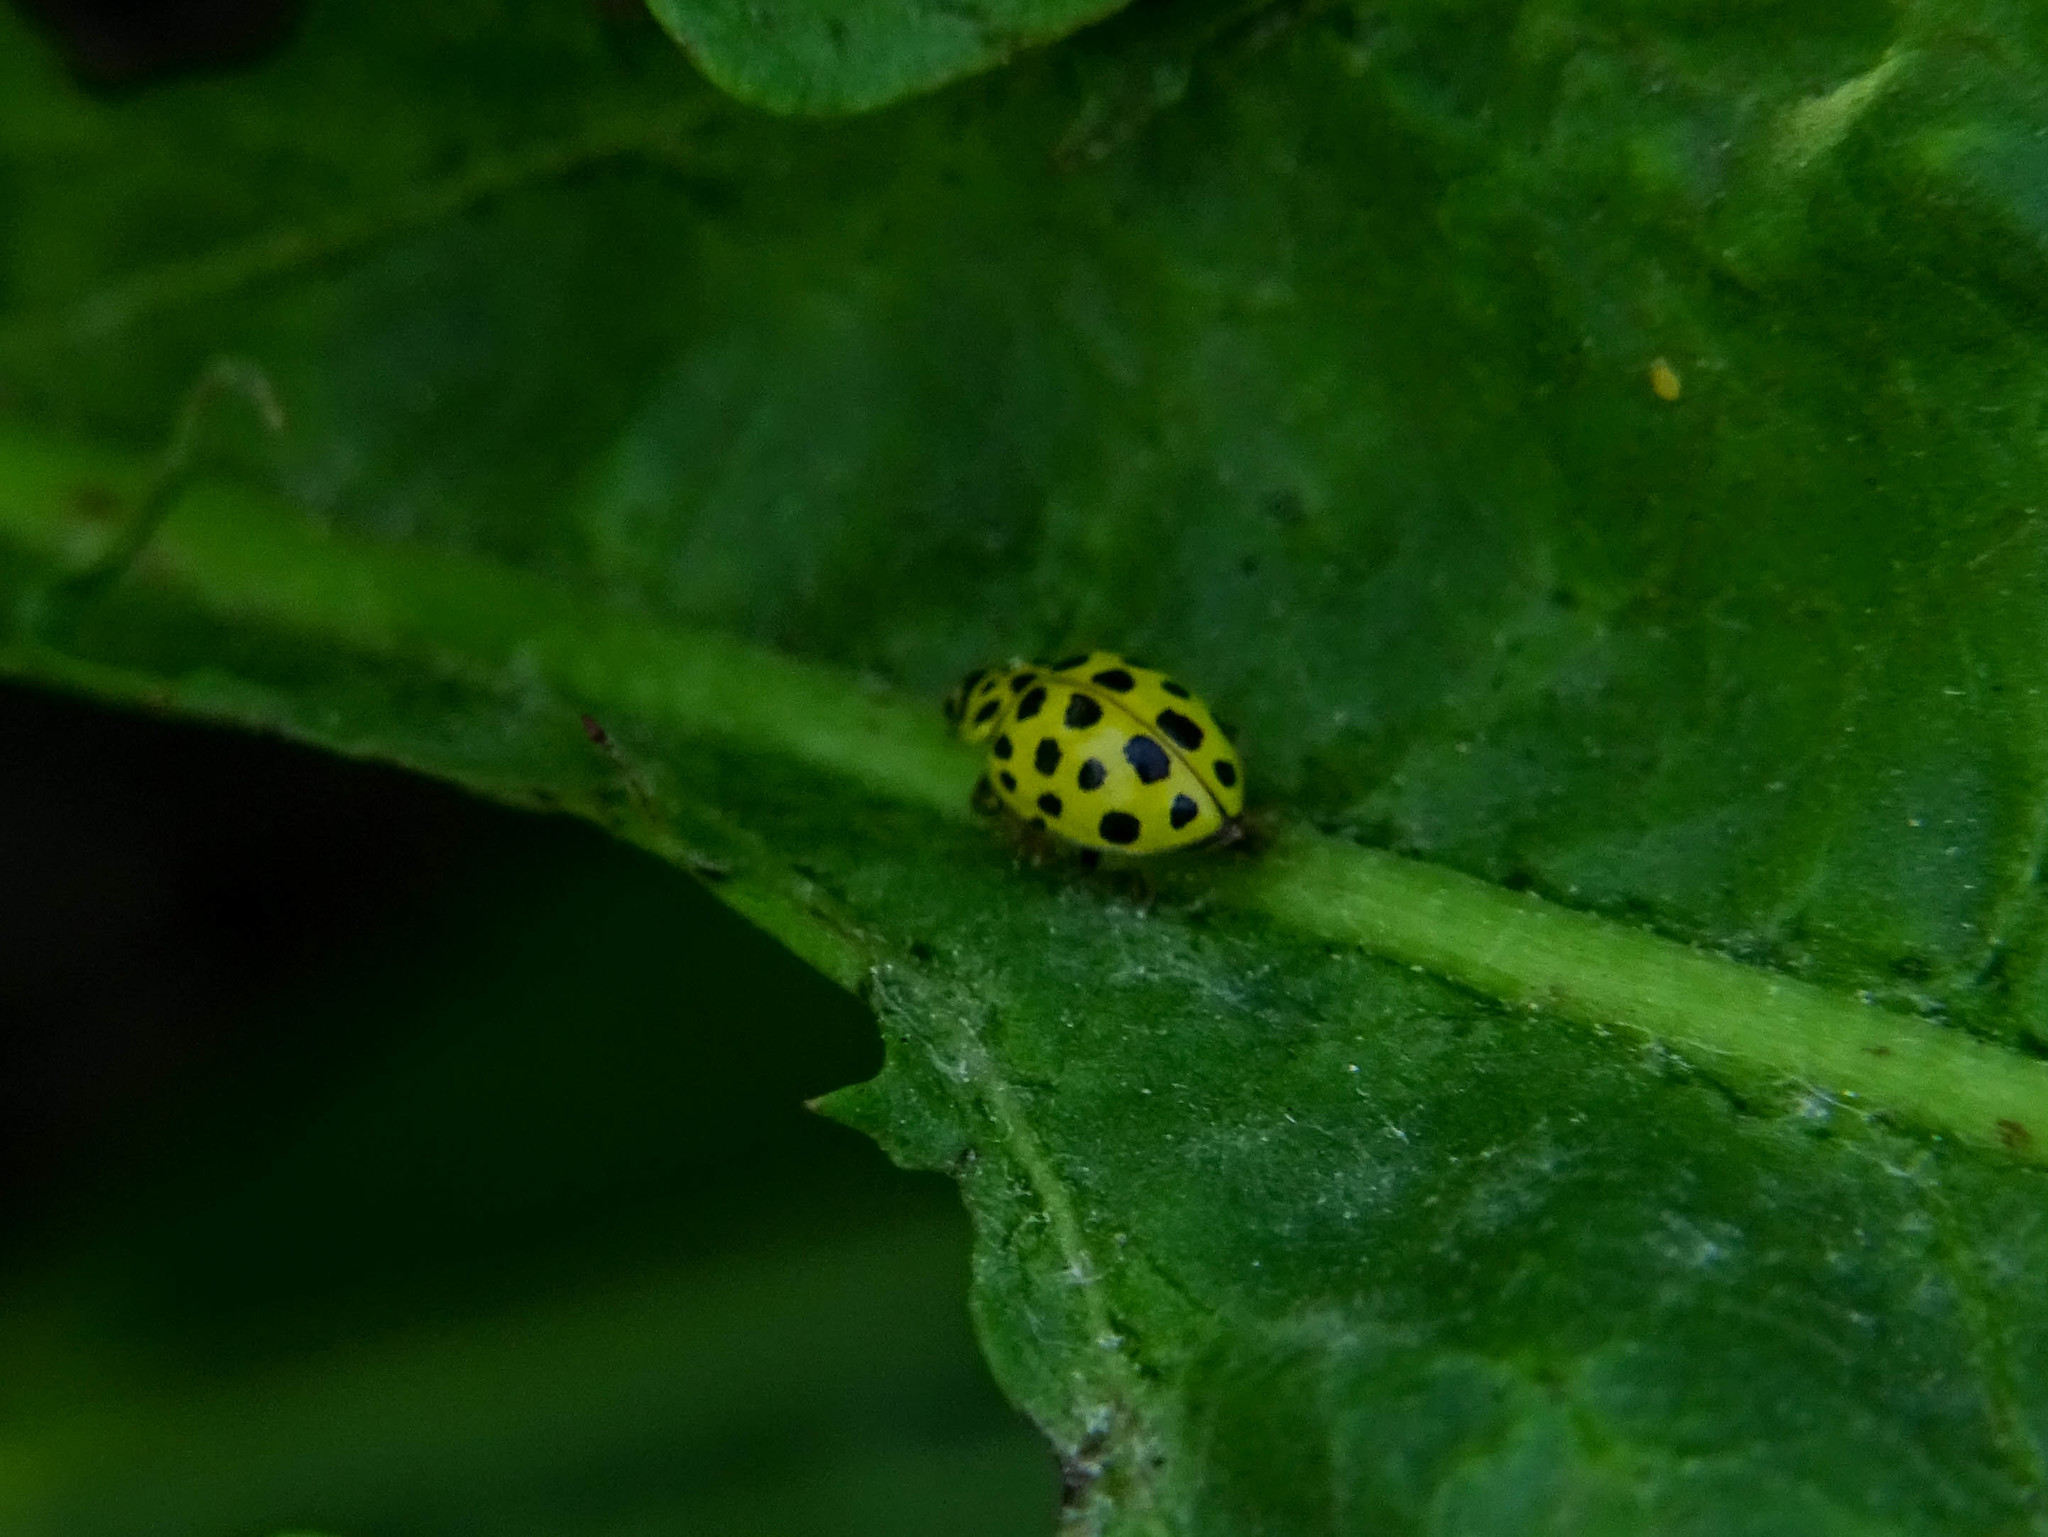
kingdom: Animalia
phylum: Arthropoda
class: Insecta
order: Coleoptera
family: Coccinellidae
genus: Psyllobora
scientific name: Psyllobora vigintiduopunctata
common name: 22-spot ladybird
